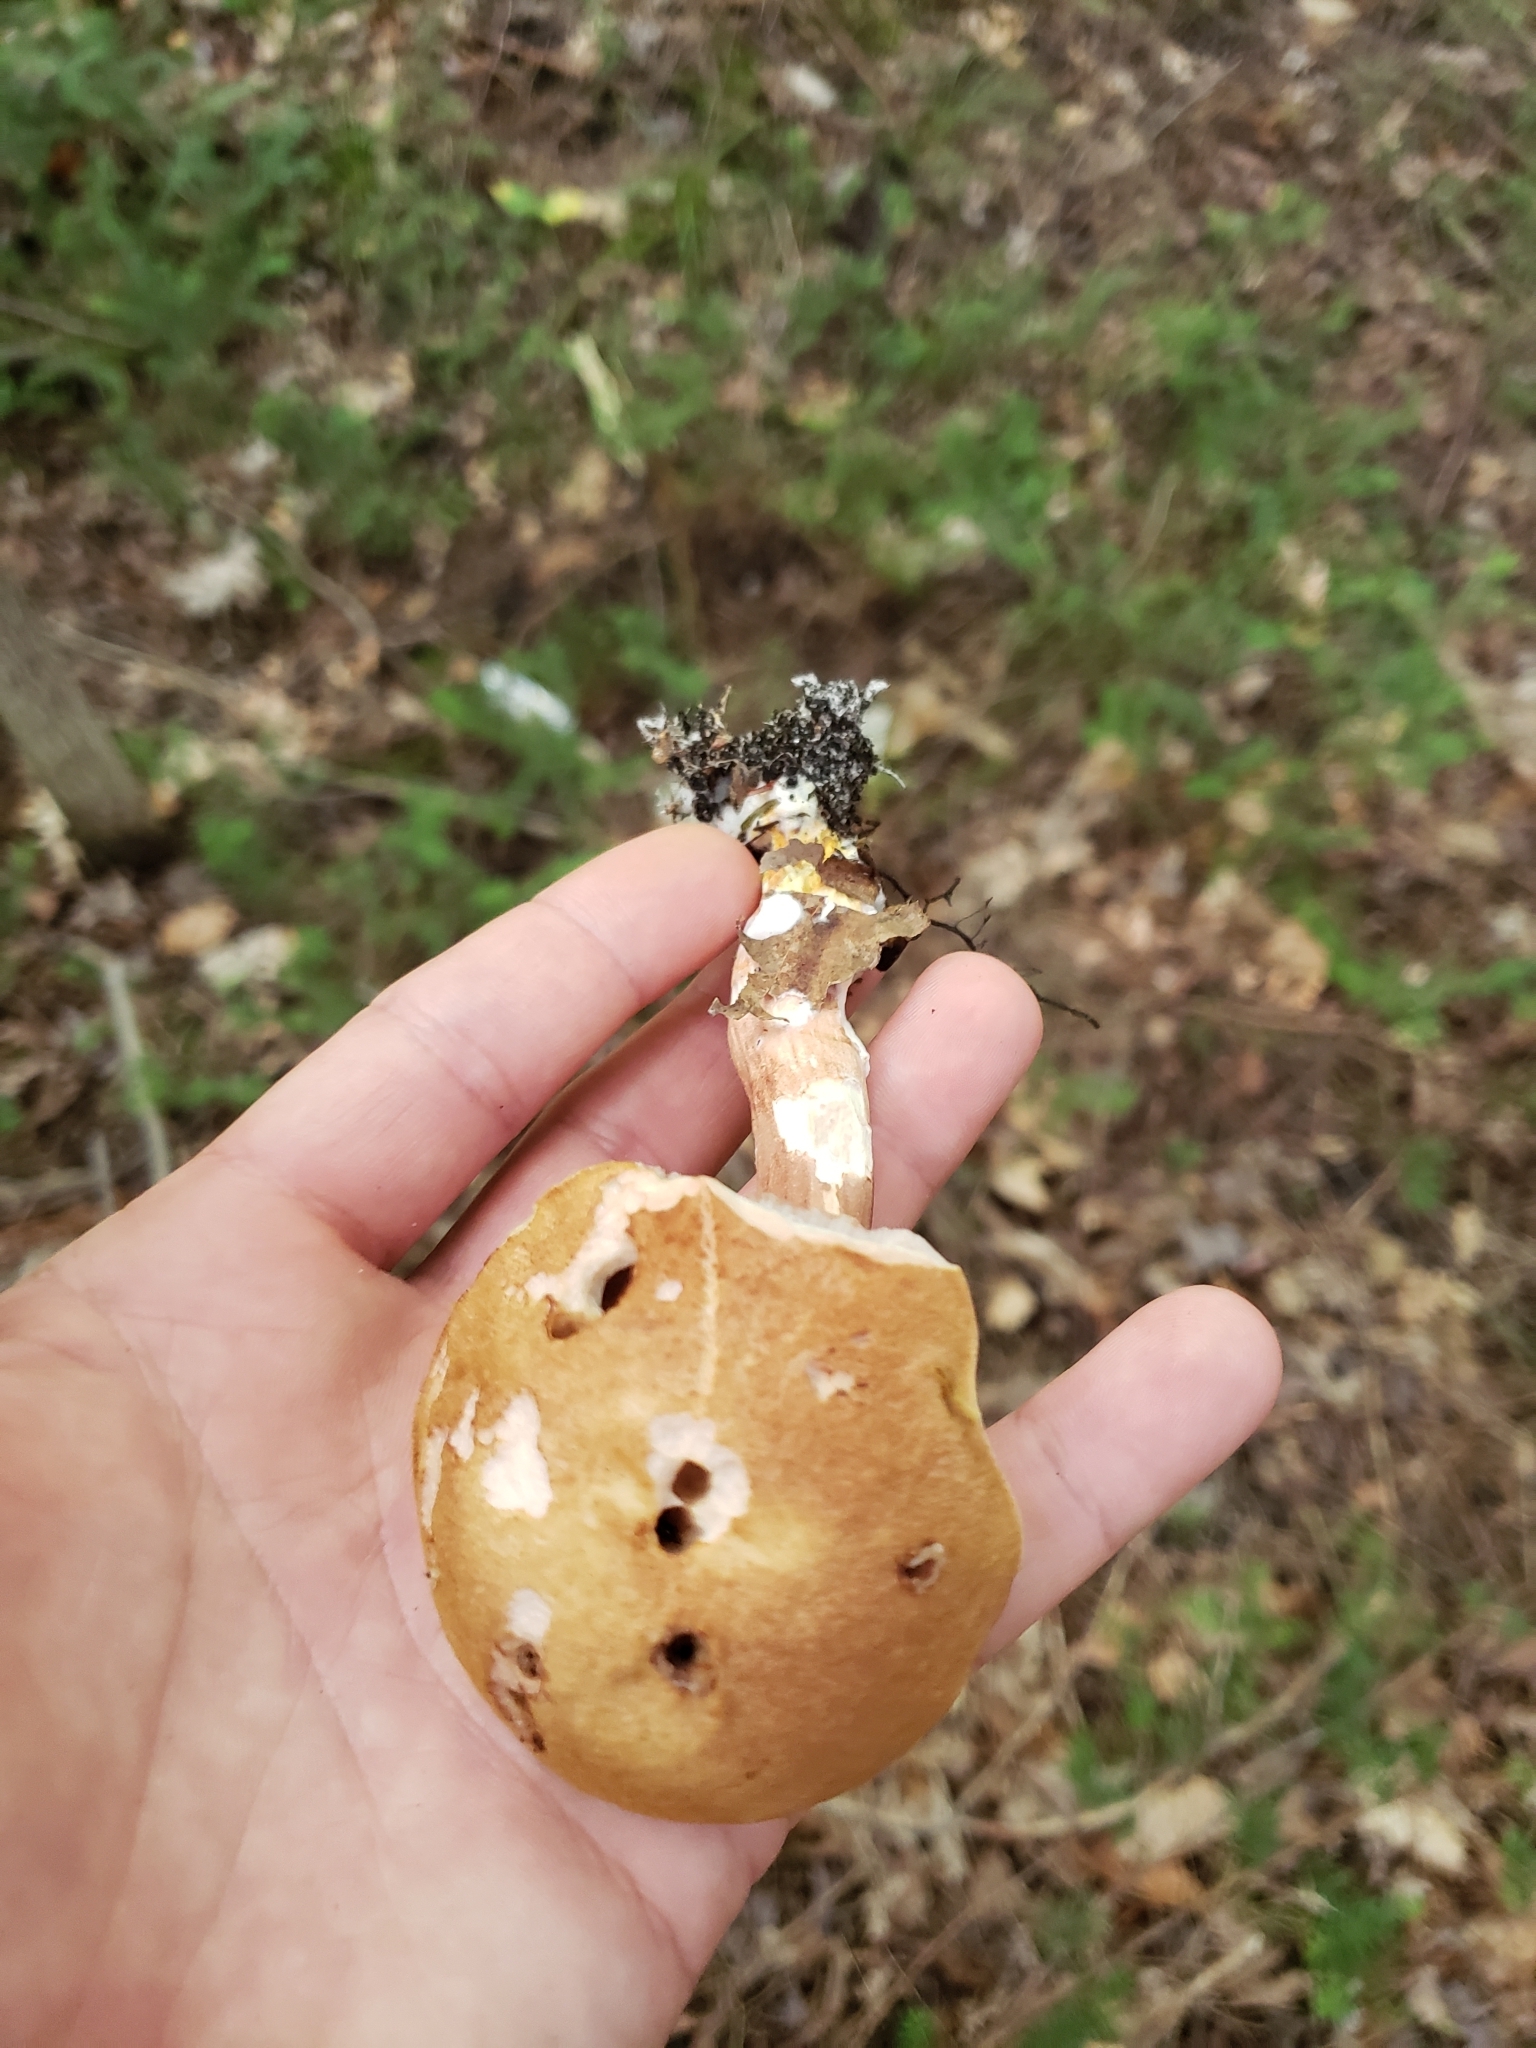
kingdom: Fungi
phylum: Basidiomycota
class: Agaricomycetes
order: Boletales
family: Boletaceae
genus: Austroboletus
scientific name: Austroboletus gracilis
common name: Graceful bolete
